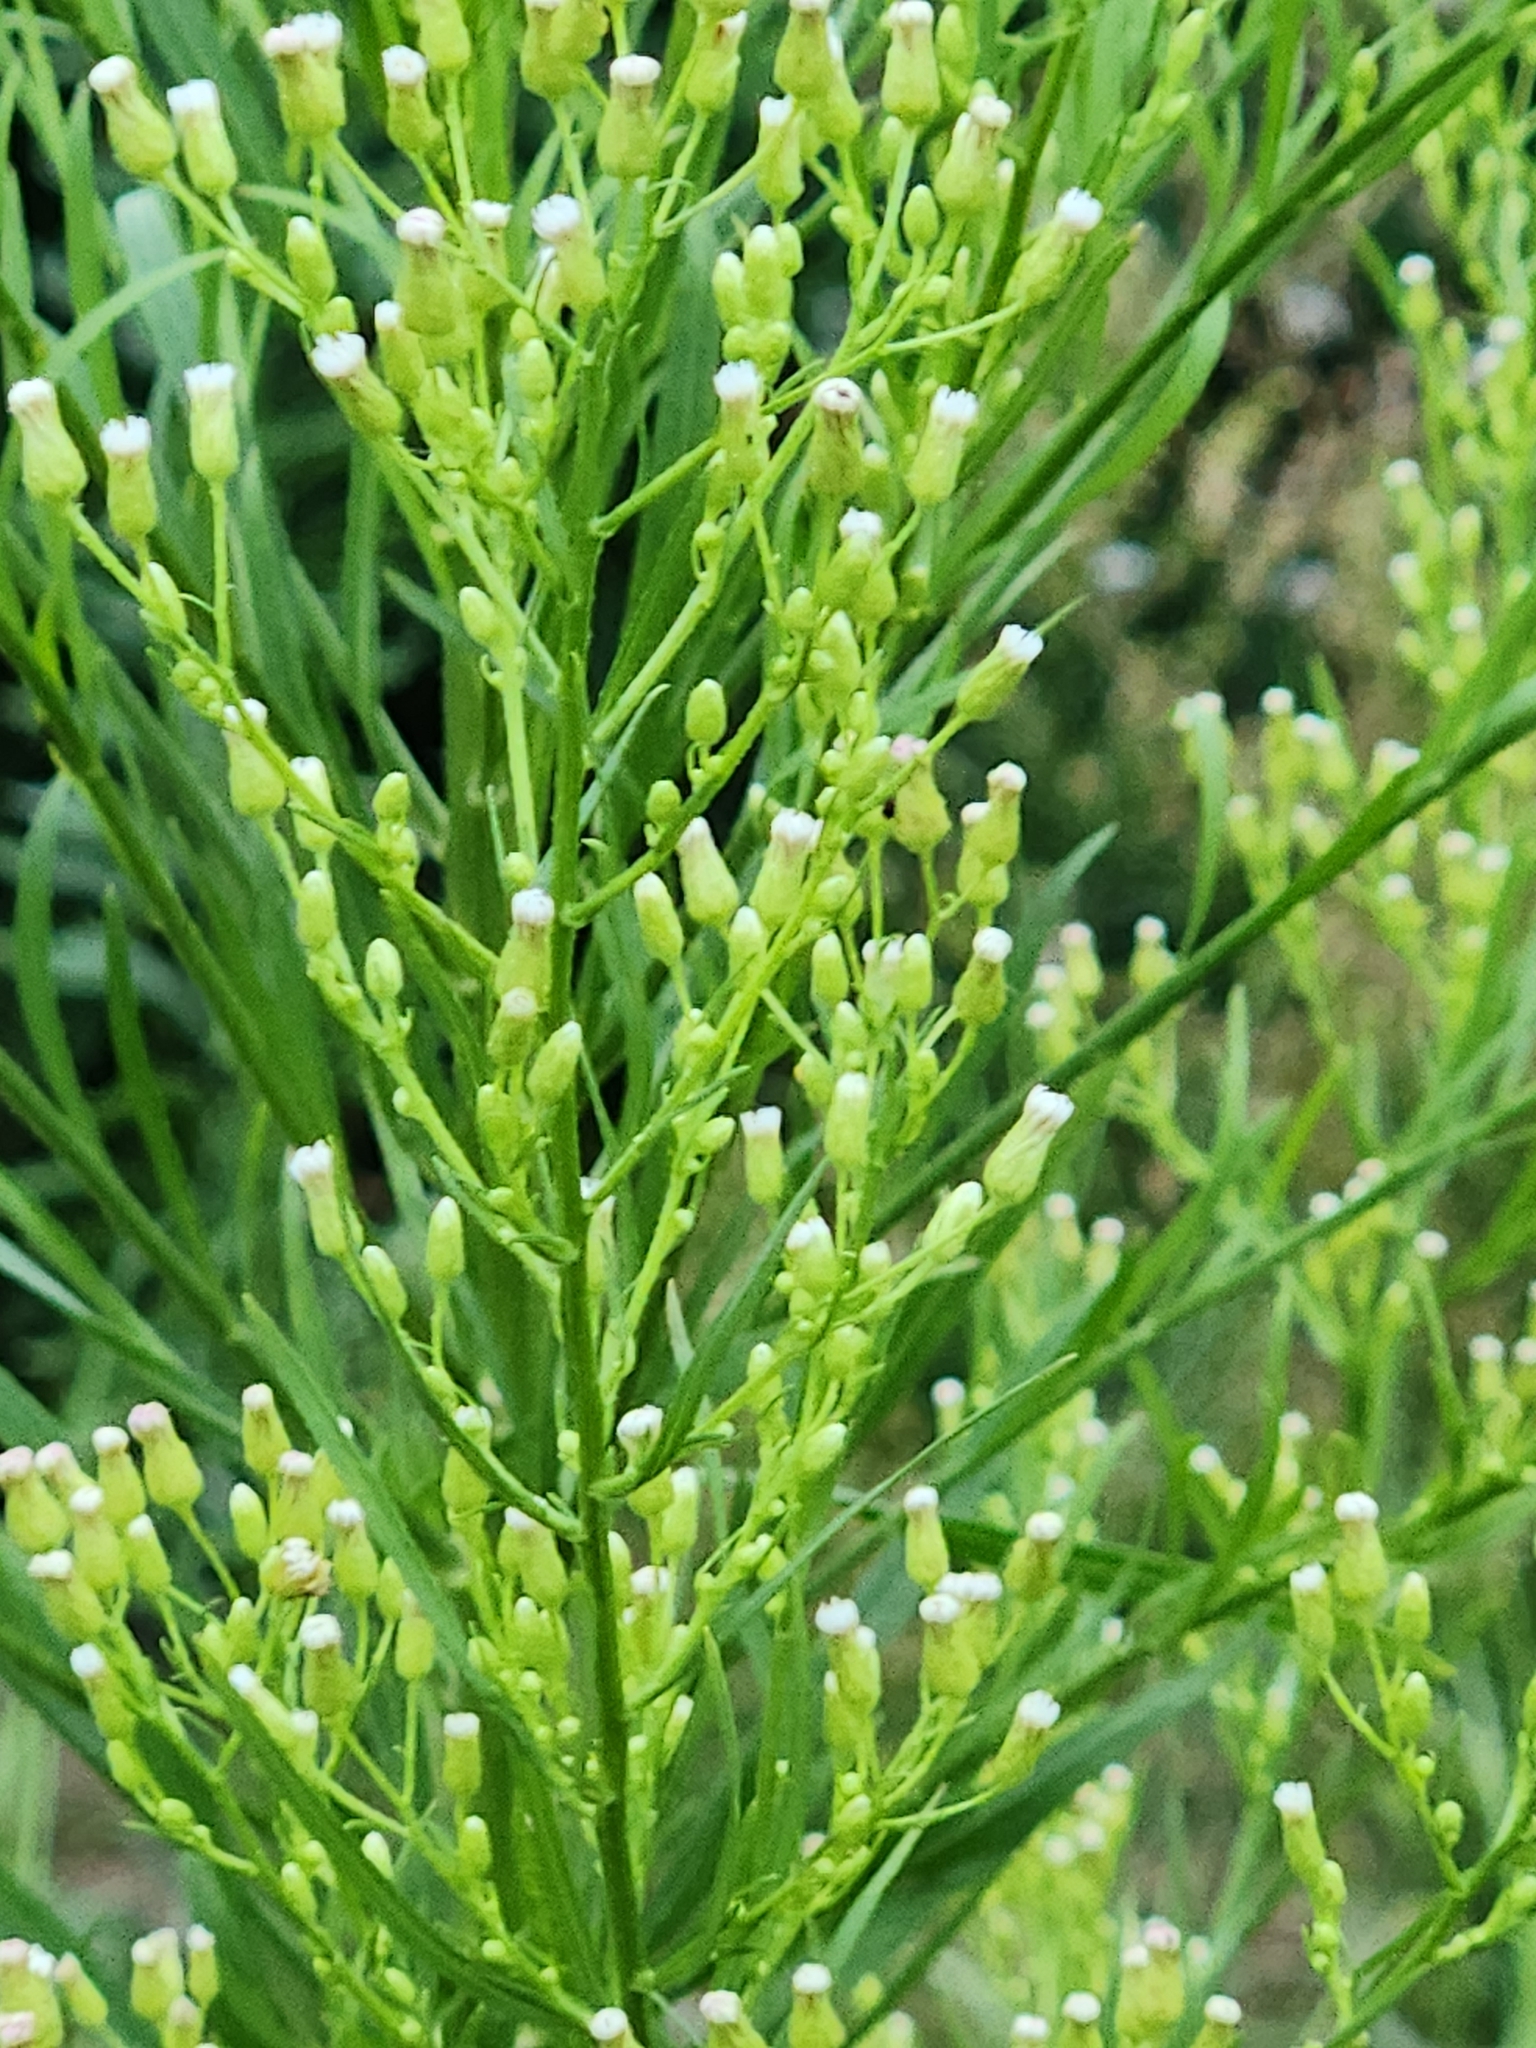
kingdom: Plantae
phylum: Tracheophyta
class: Magnoliopsida
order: Asterales
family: Asteraceae
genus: Baccharis
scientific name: Baccharis neglecta
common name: Roosevelt-weed
